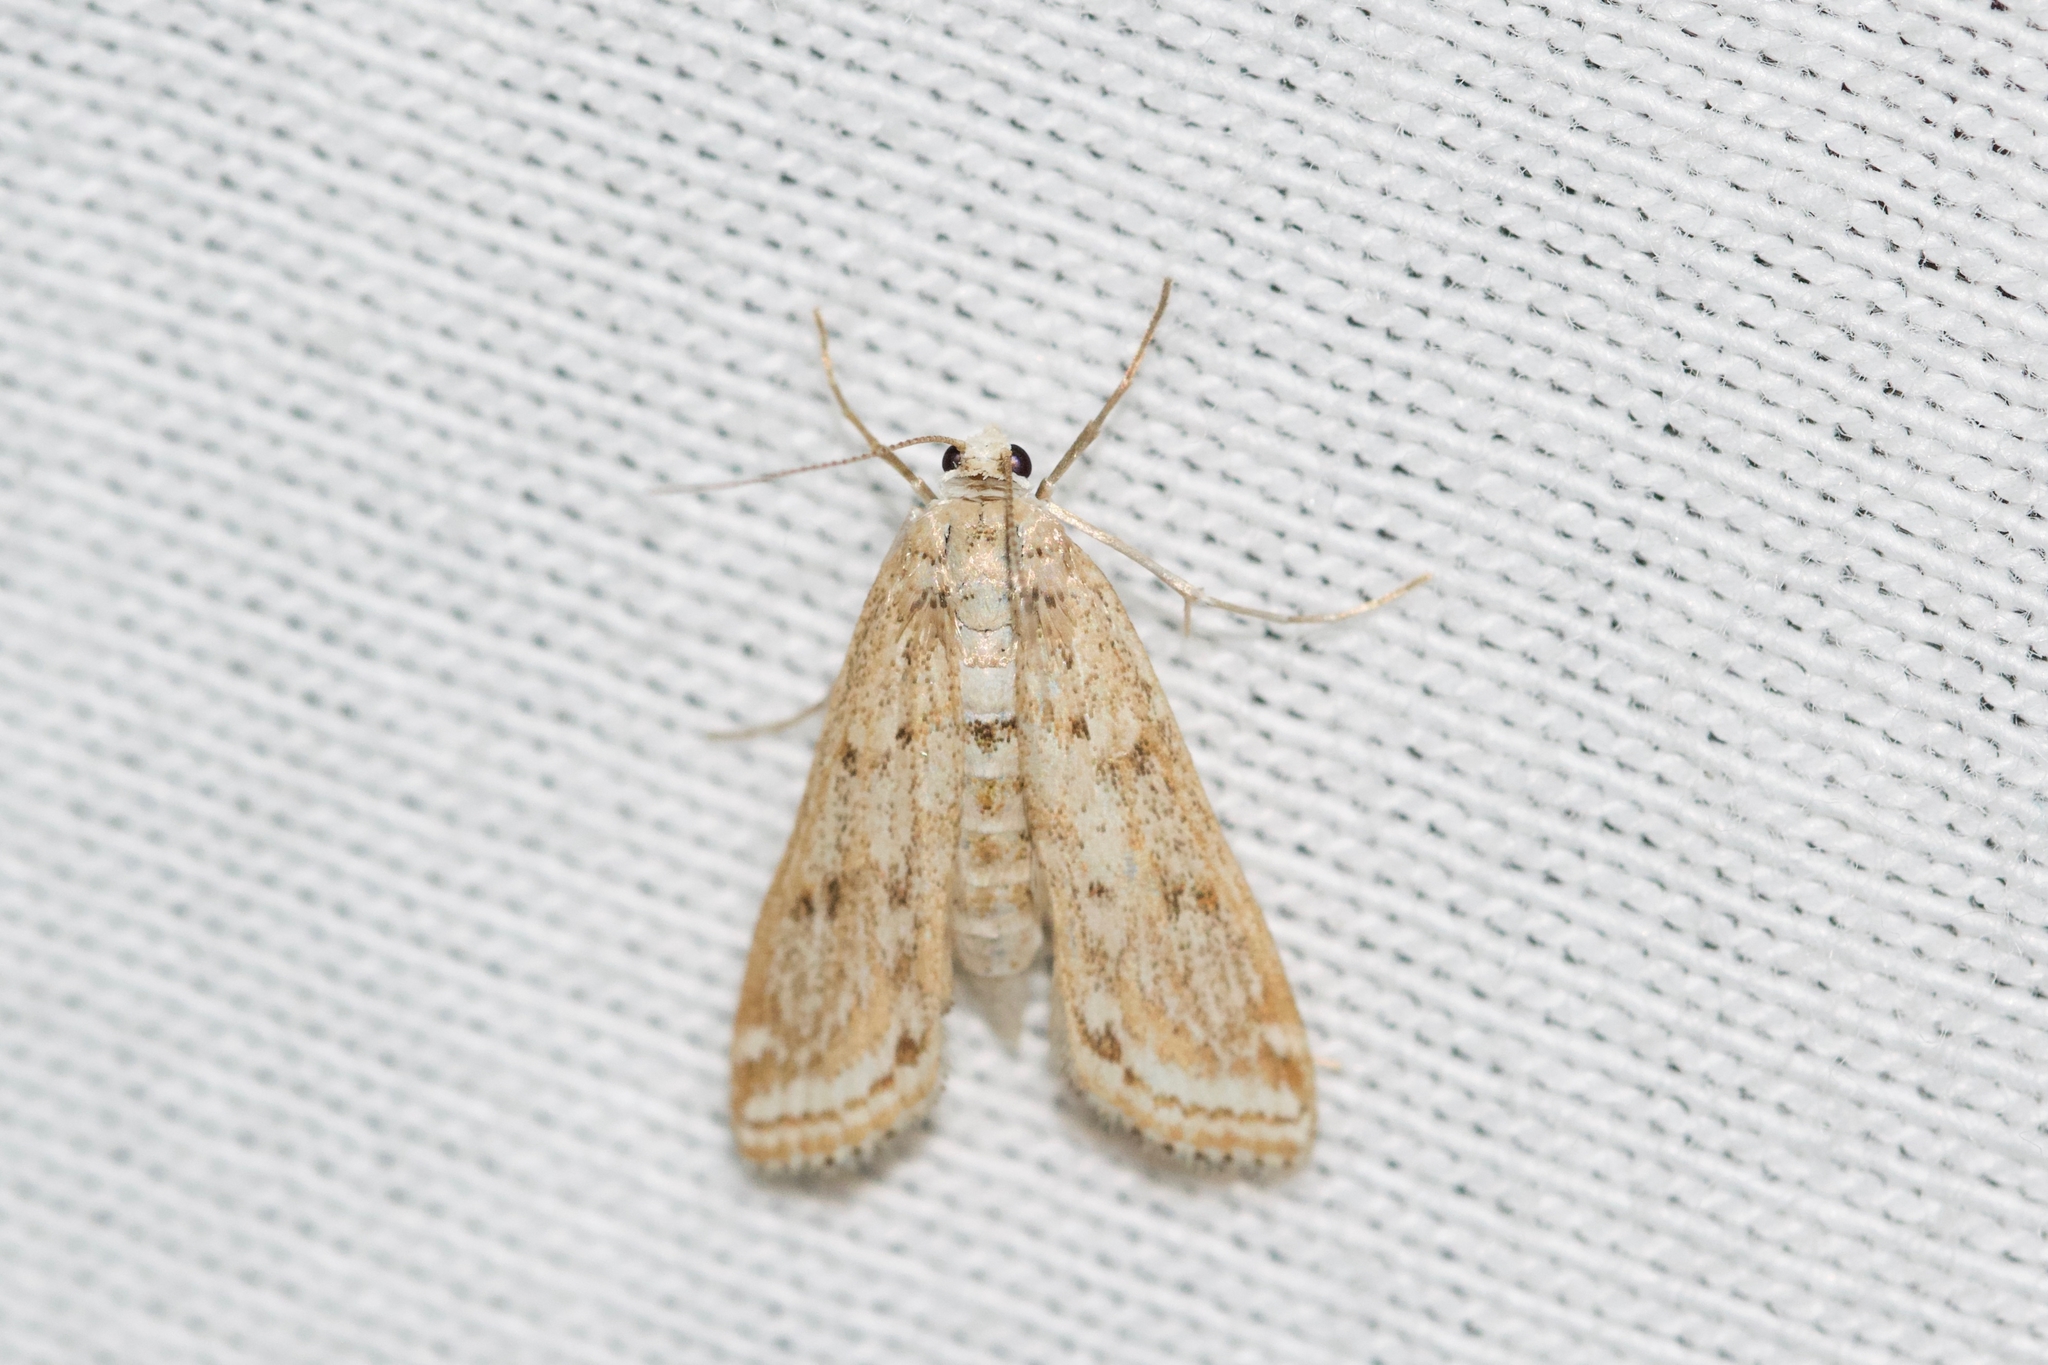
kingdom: Animalia
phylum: Arthropoda
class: Insecta
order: Lepidoptera
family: Crambidae
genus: Parapoynx
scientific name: Parapoynx allionealis
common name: Bladderwort casemaker
